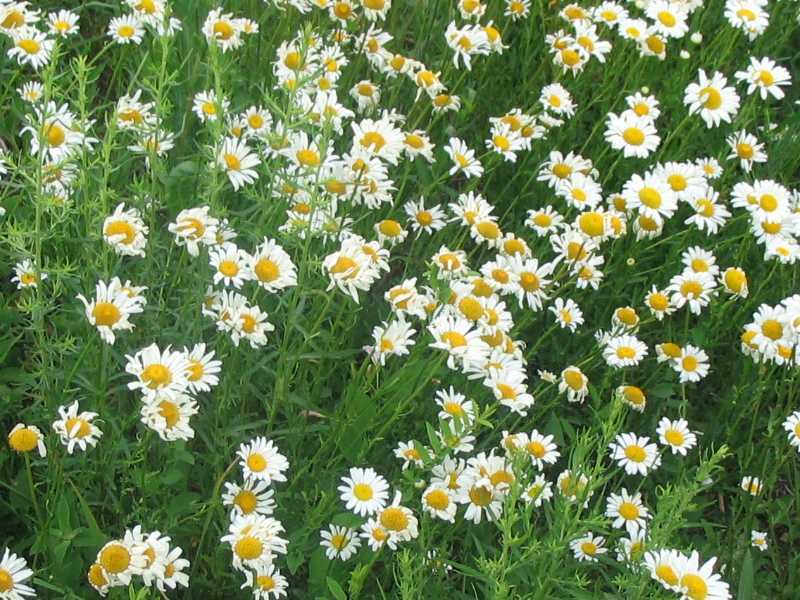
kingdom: Plantae
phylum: Tracheophyta
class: Magnoliopsida
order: Asterales
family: Asteraceae
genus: Leucanthemum
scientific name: Leucanthemum vulgare
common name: Oxeye daisy
